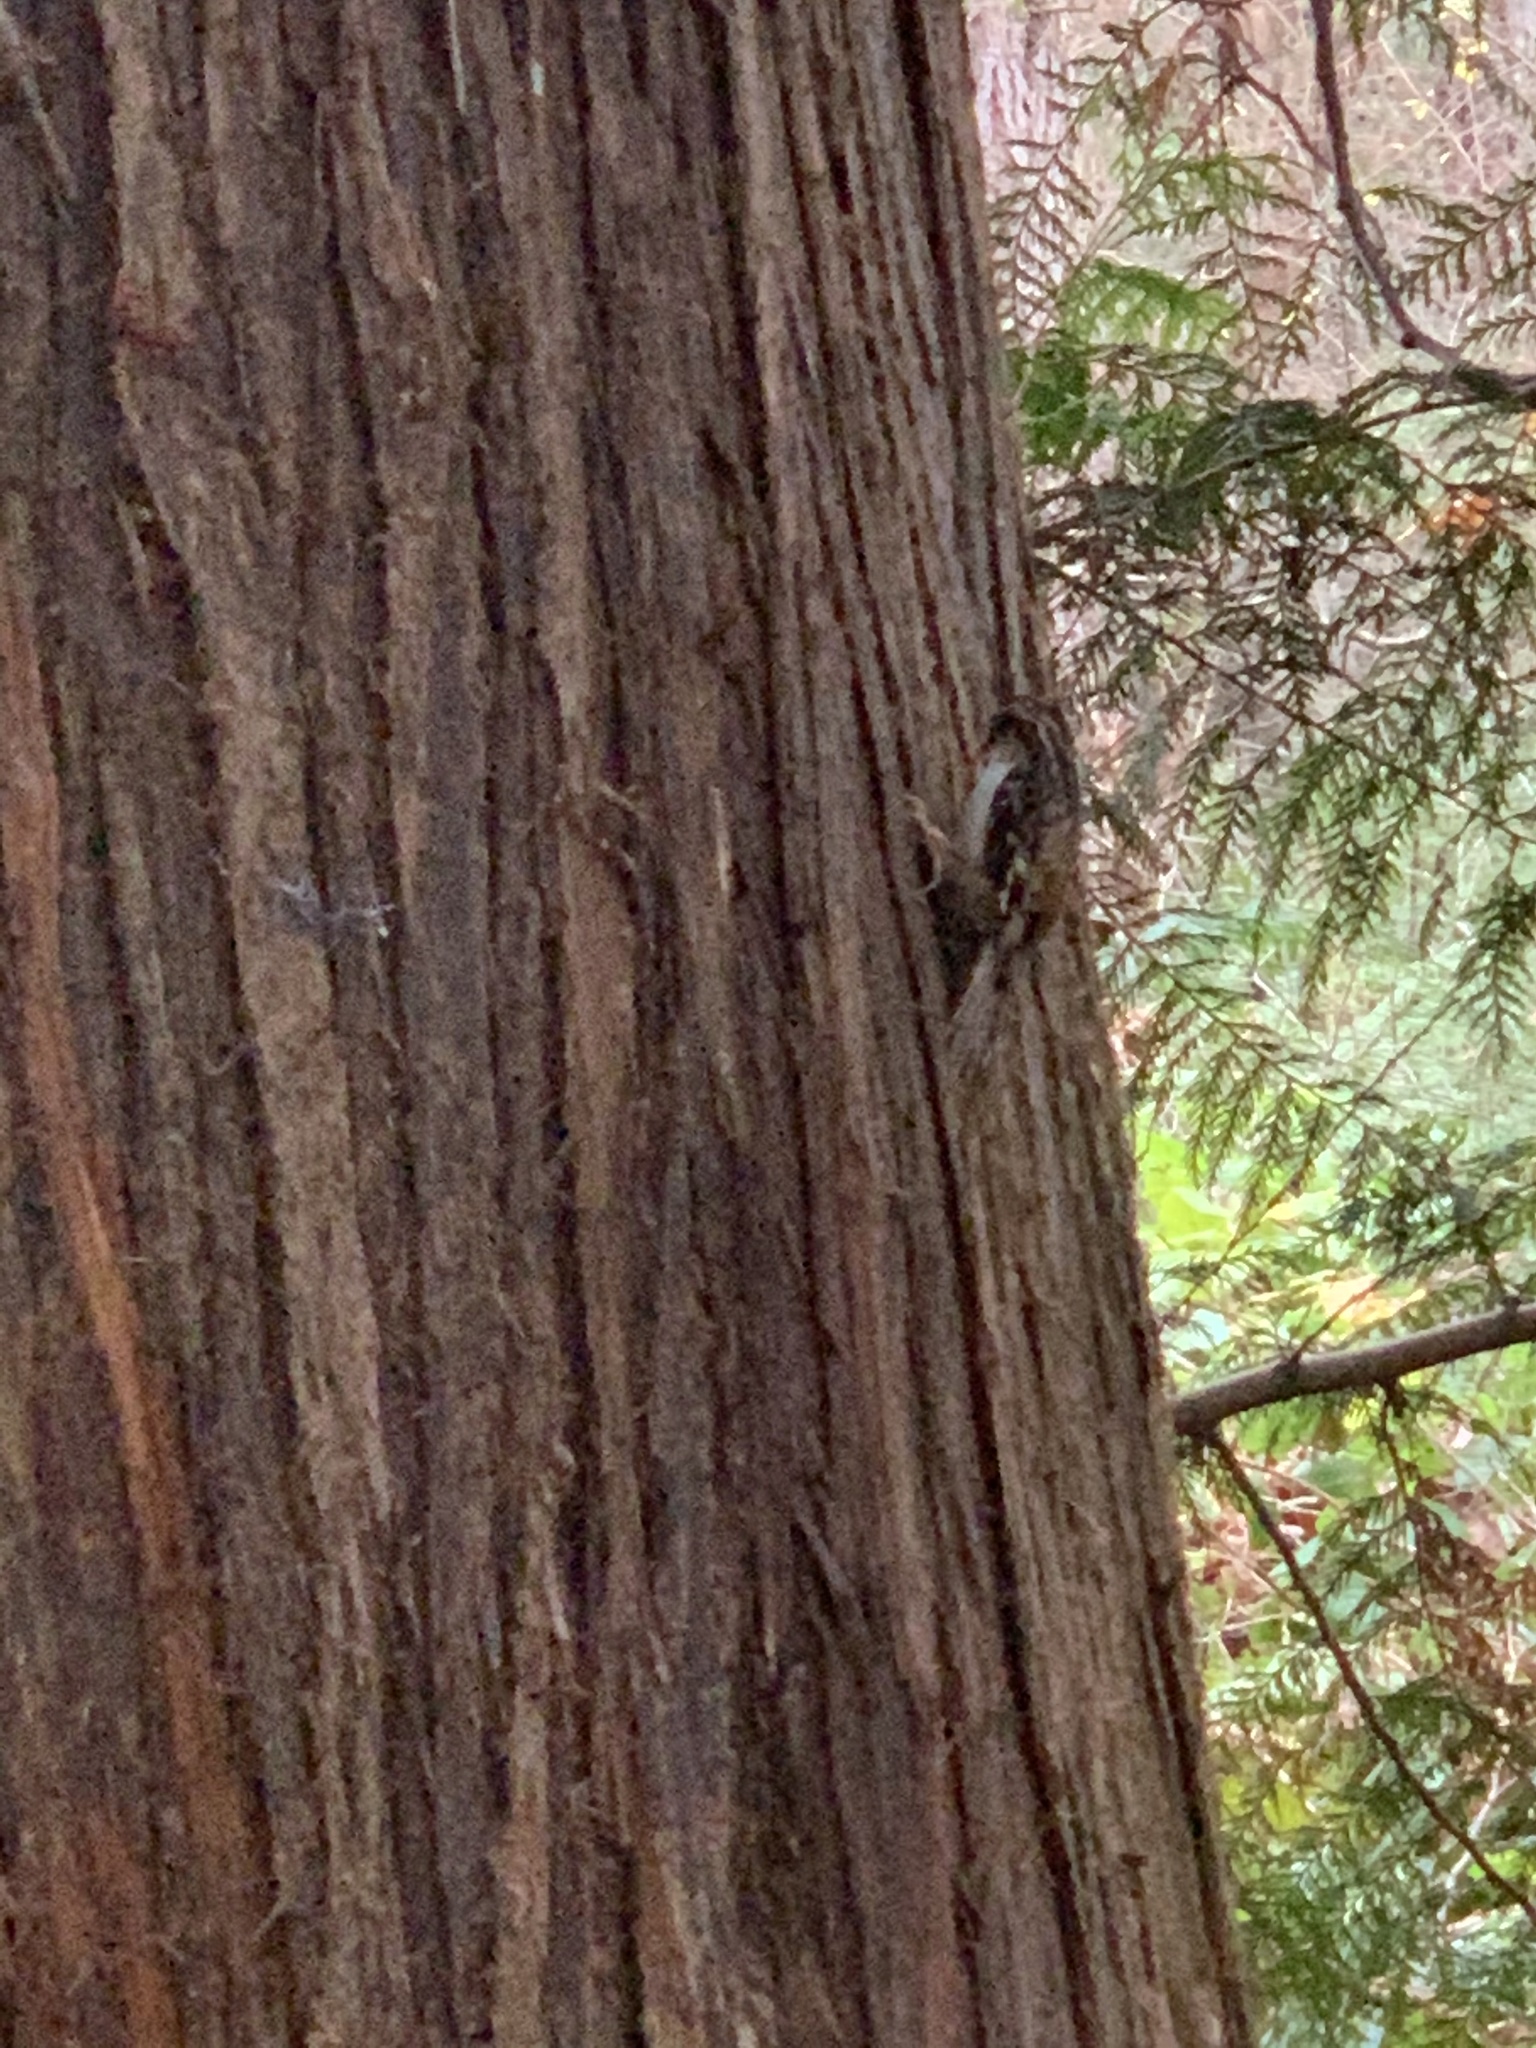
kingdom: Animalia
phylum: Chordata
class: Aves
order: Passeriformes
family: Certhiidae
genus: Certhia
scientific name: Certhia americana
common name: Brown creeper
